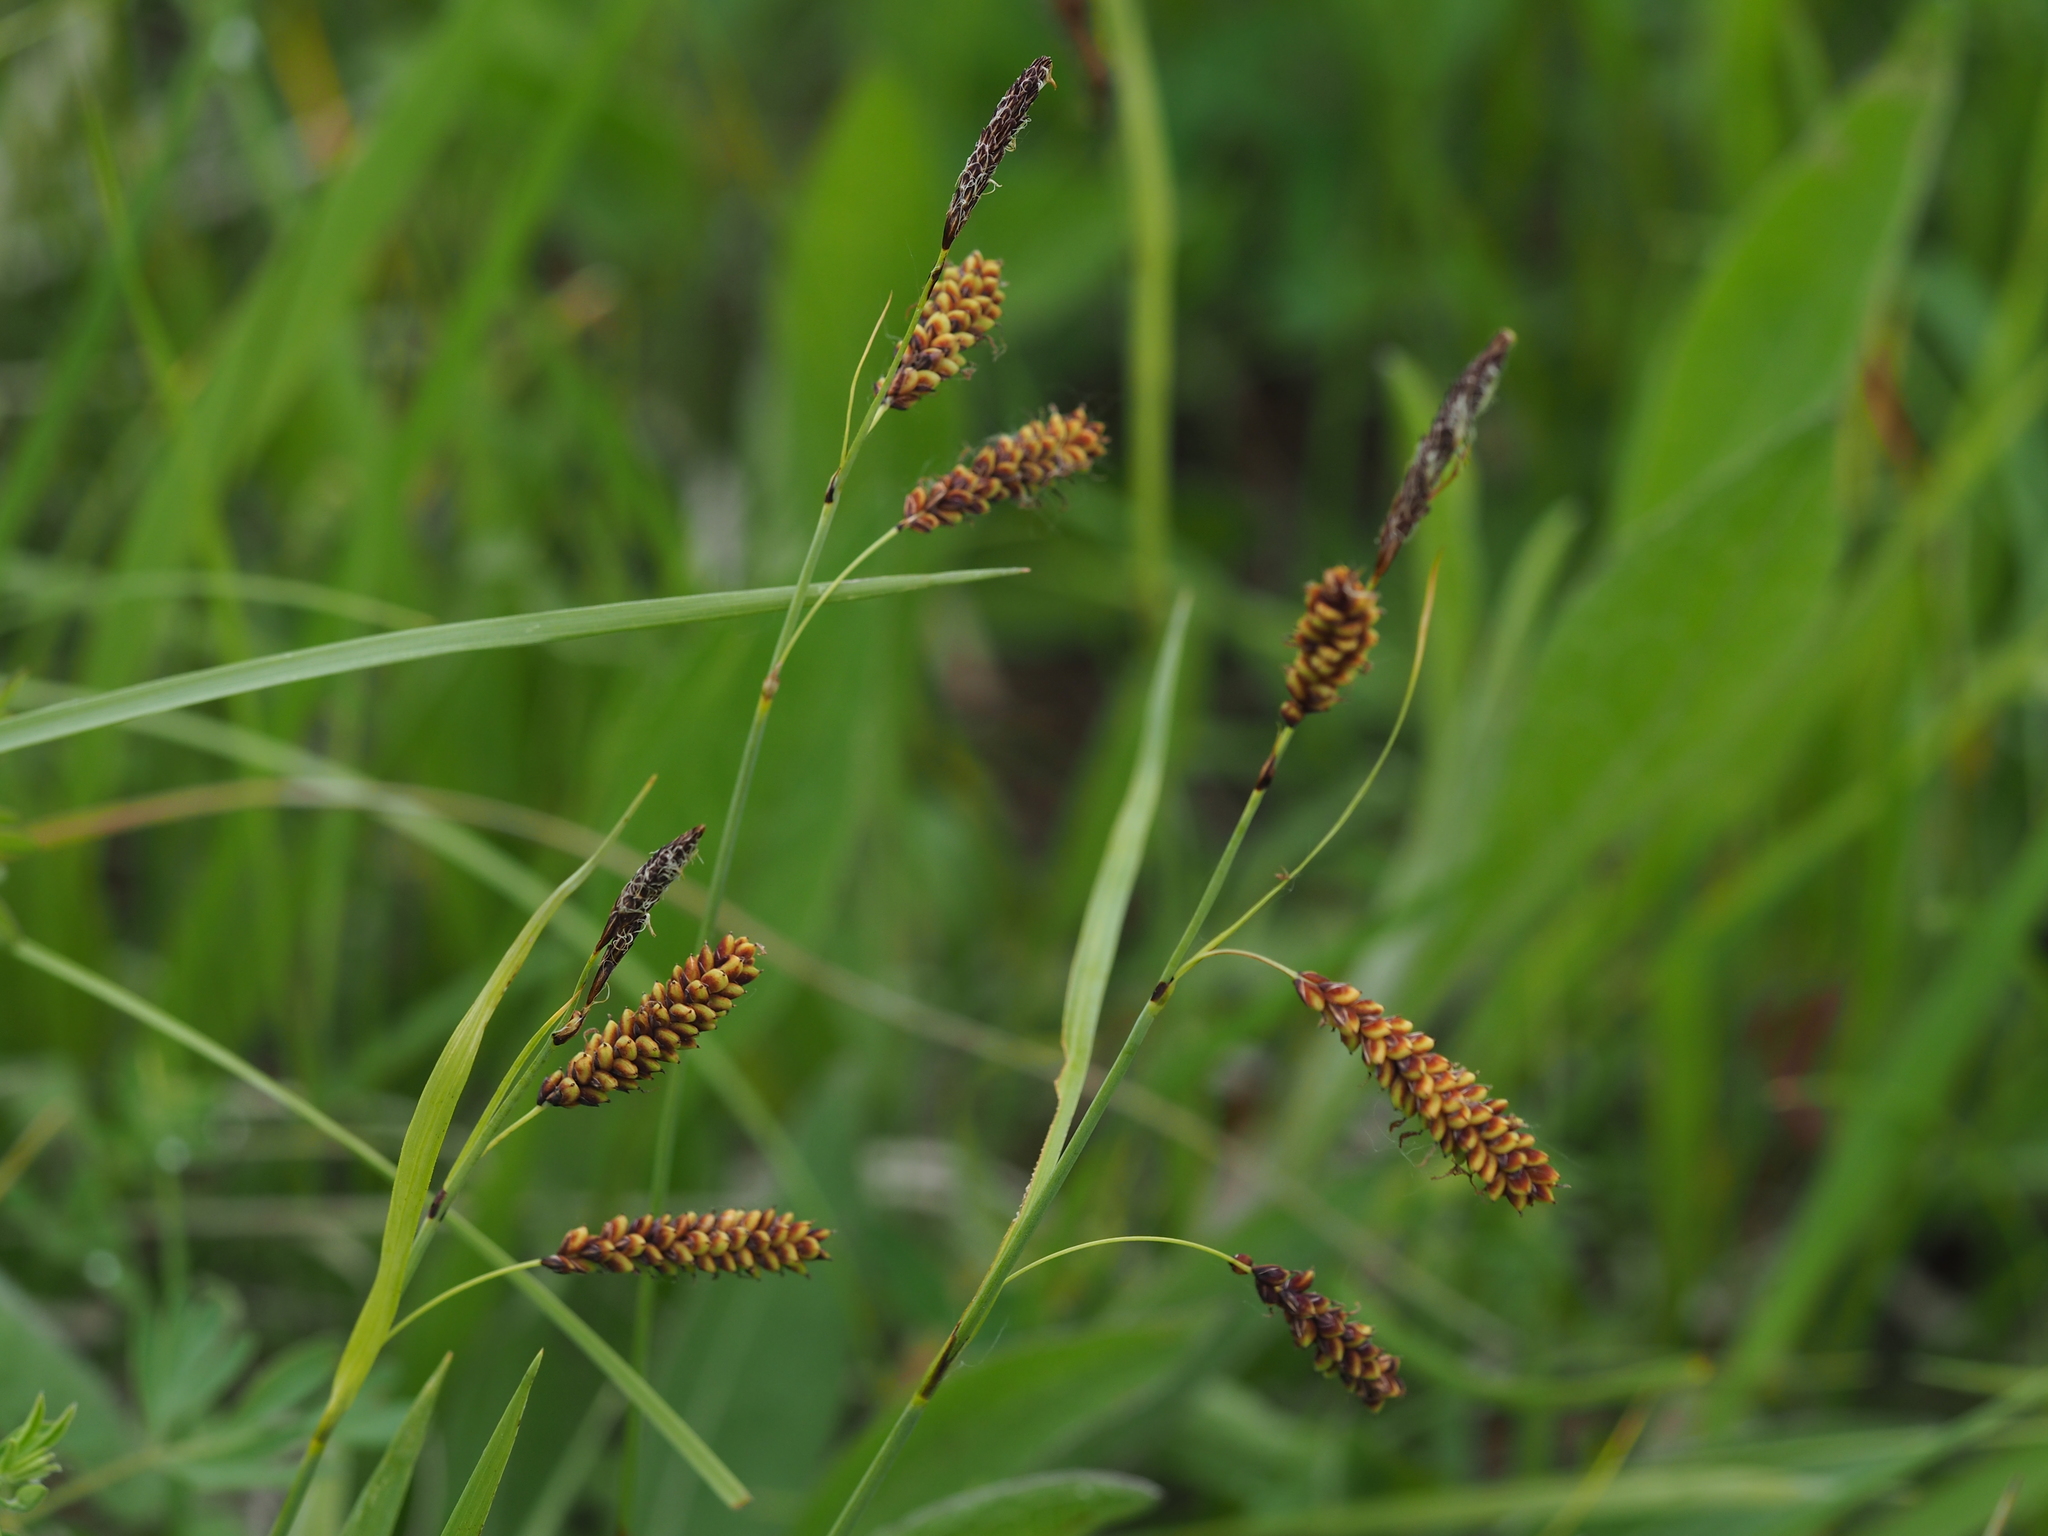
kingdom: Plantae
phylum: Tracheophyta
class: Liliopsida
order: Poales
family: Cyperaceae
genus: Carex
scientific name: Carex flacca
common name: Glaucous sedge
